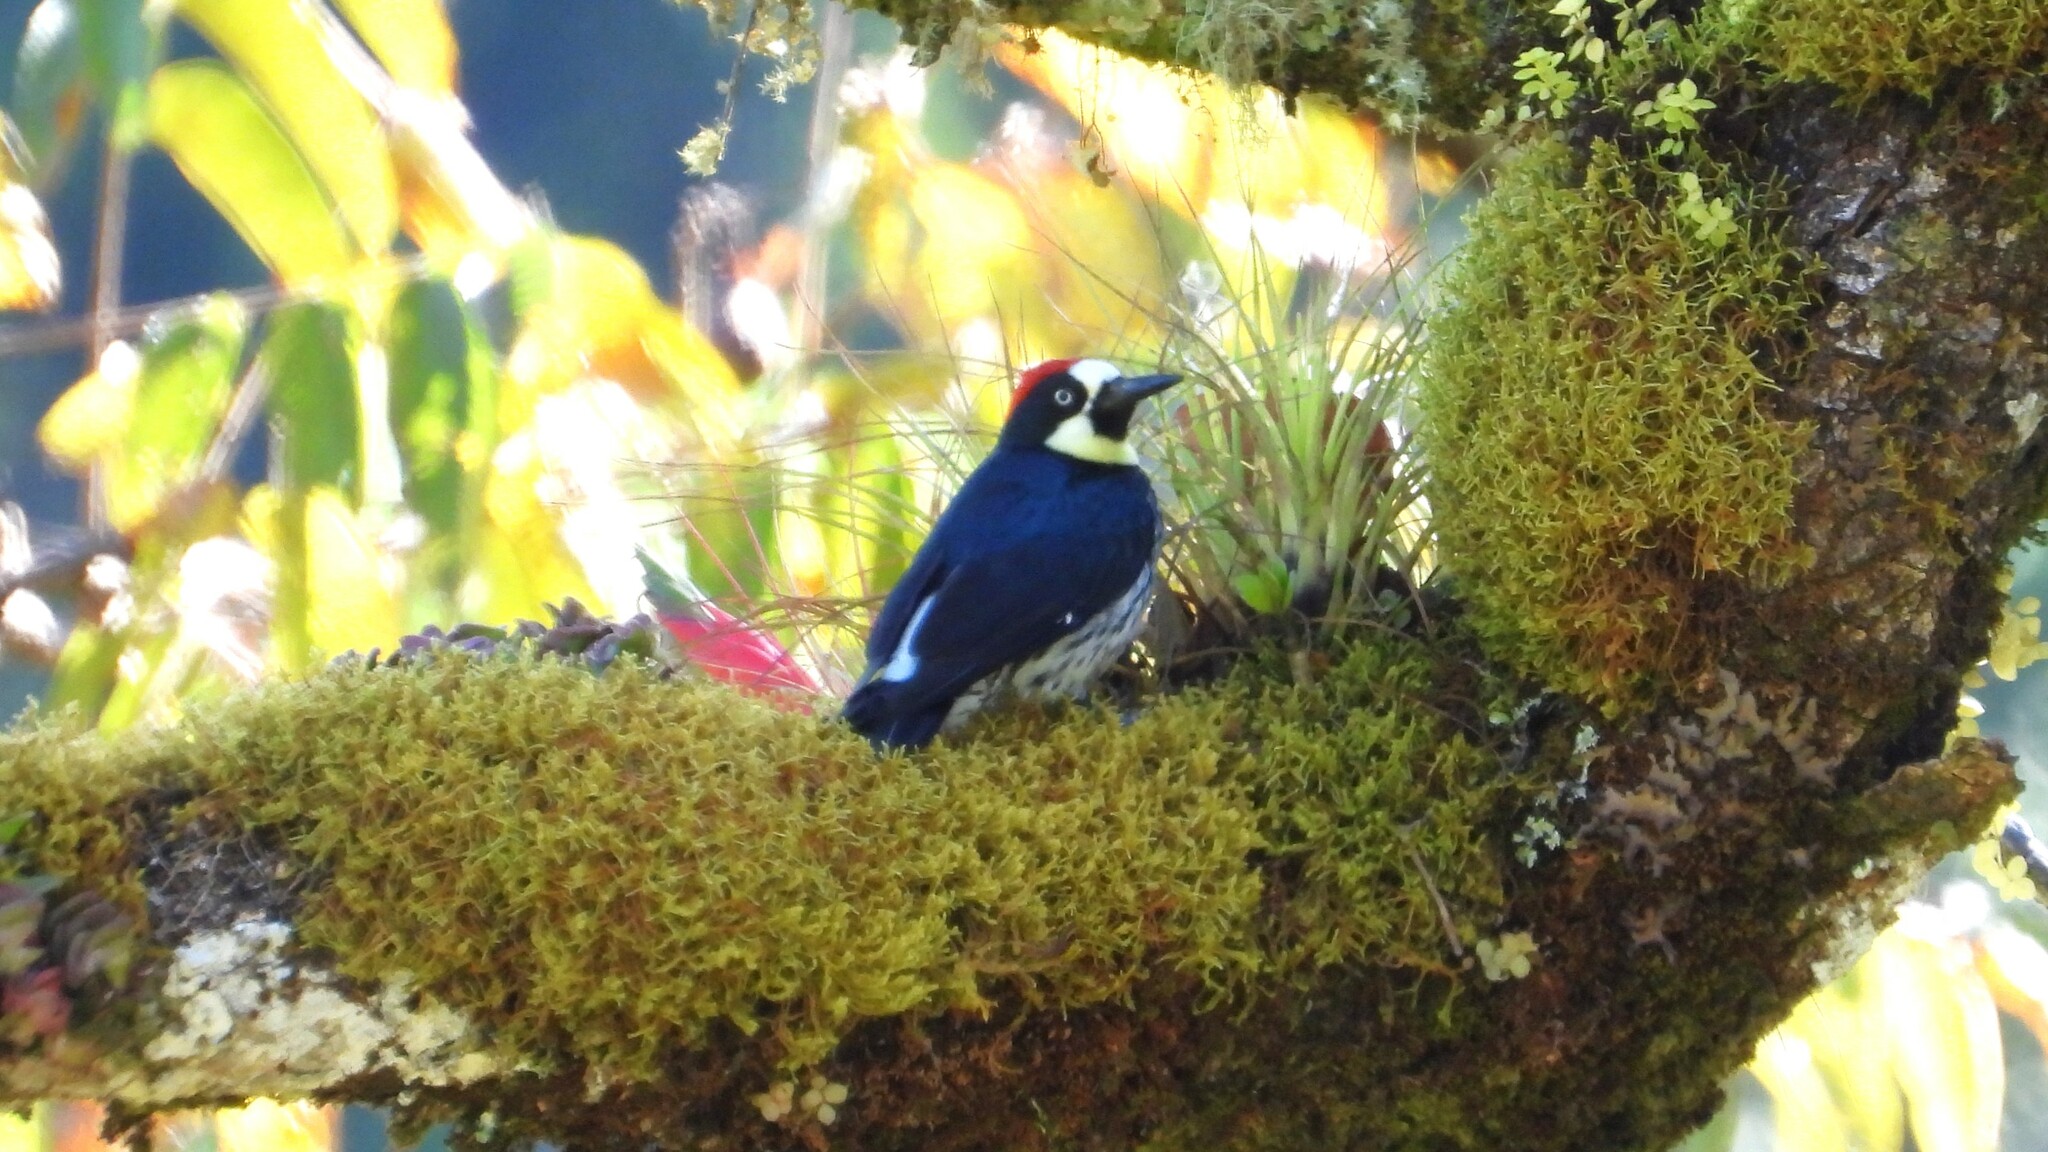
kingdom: Animalia
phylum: Chordata
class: Aves
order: Piciformes
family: Picidae
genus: Melanerpes
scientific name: Melanerpes formicivorus
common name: Acorn woodpecker
